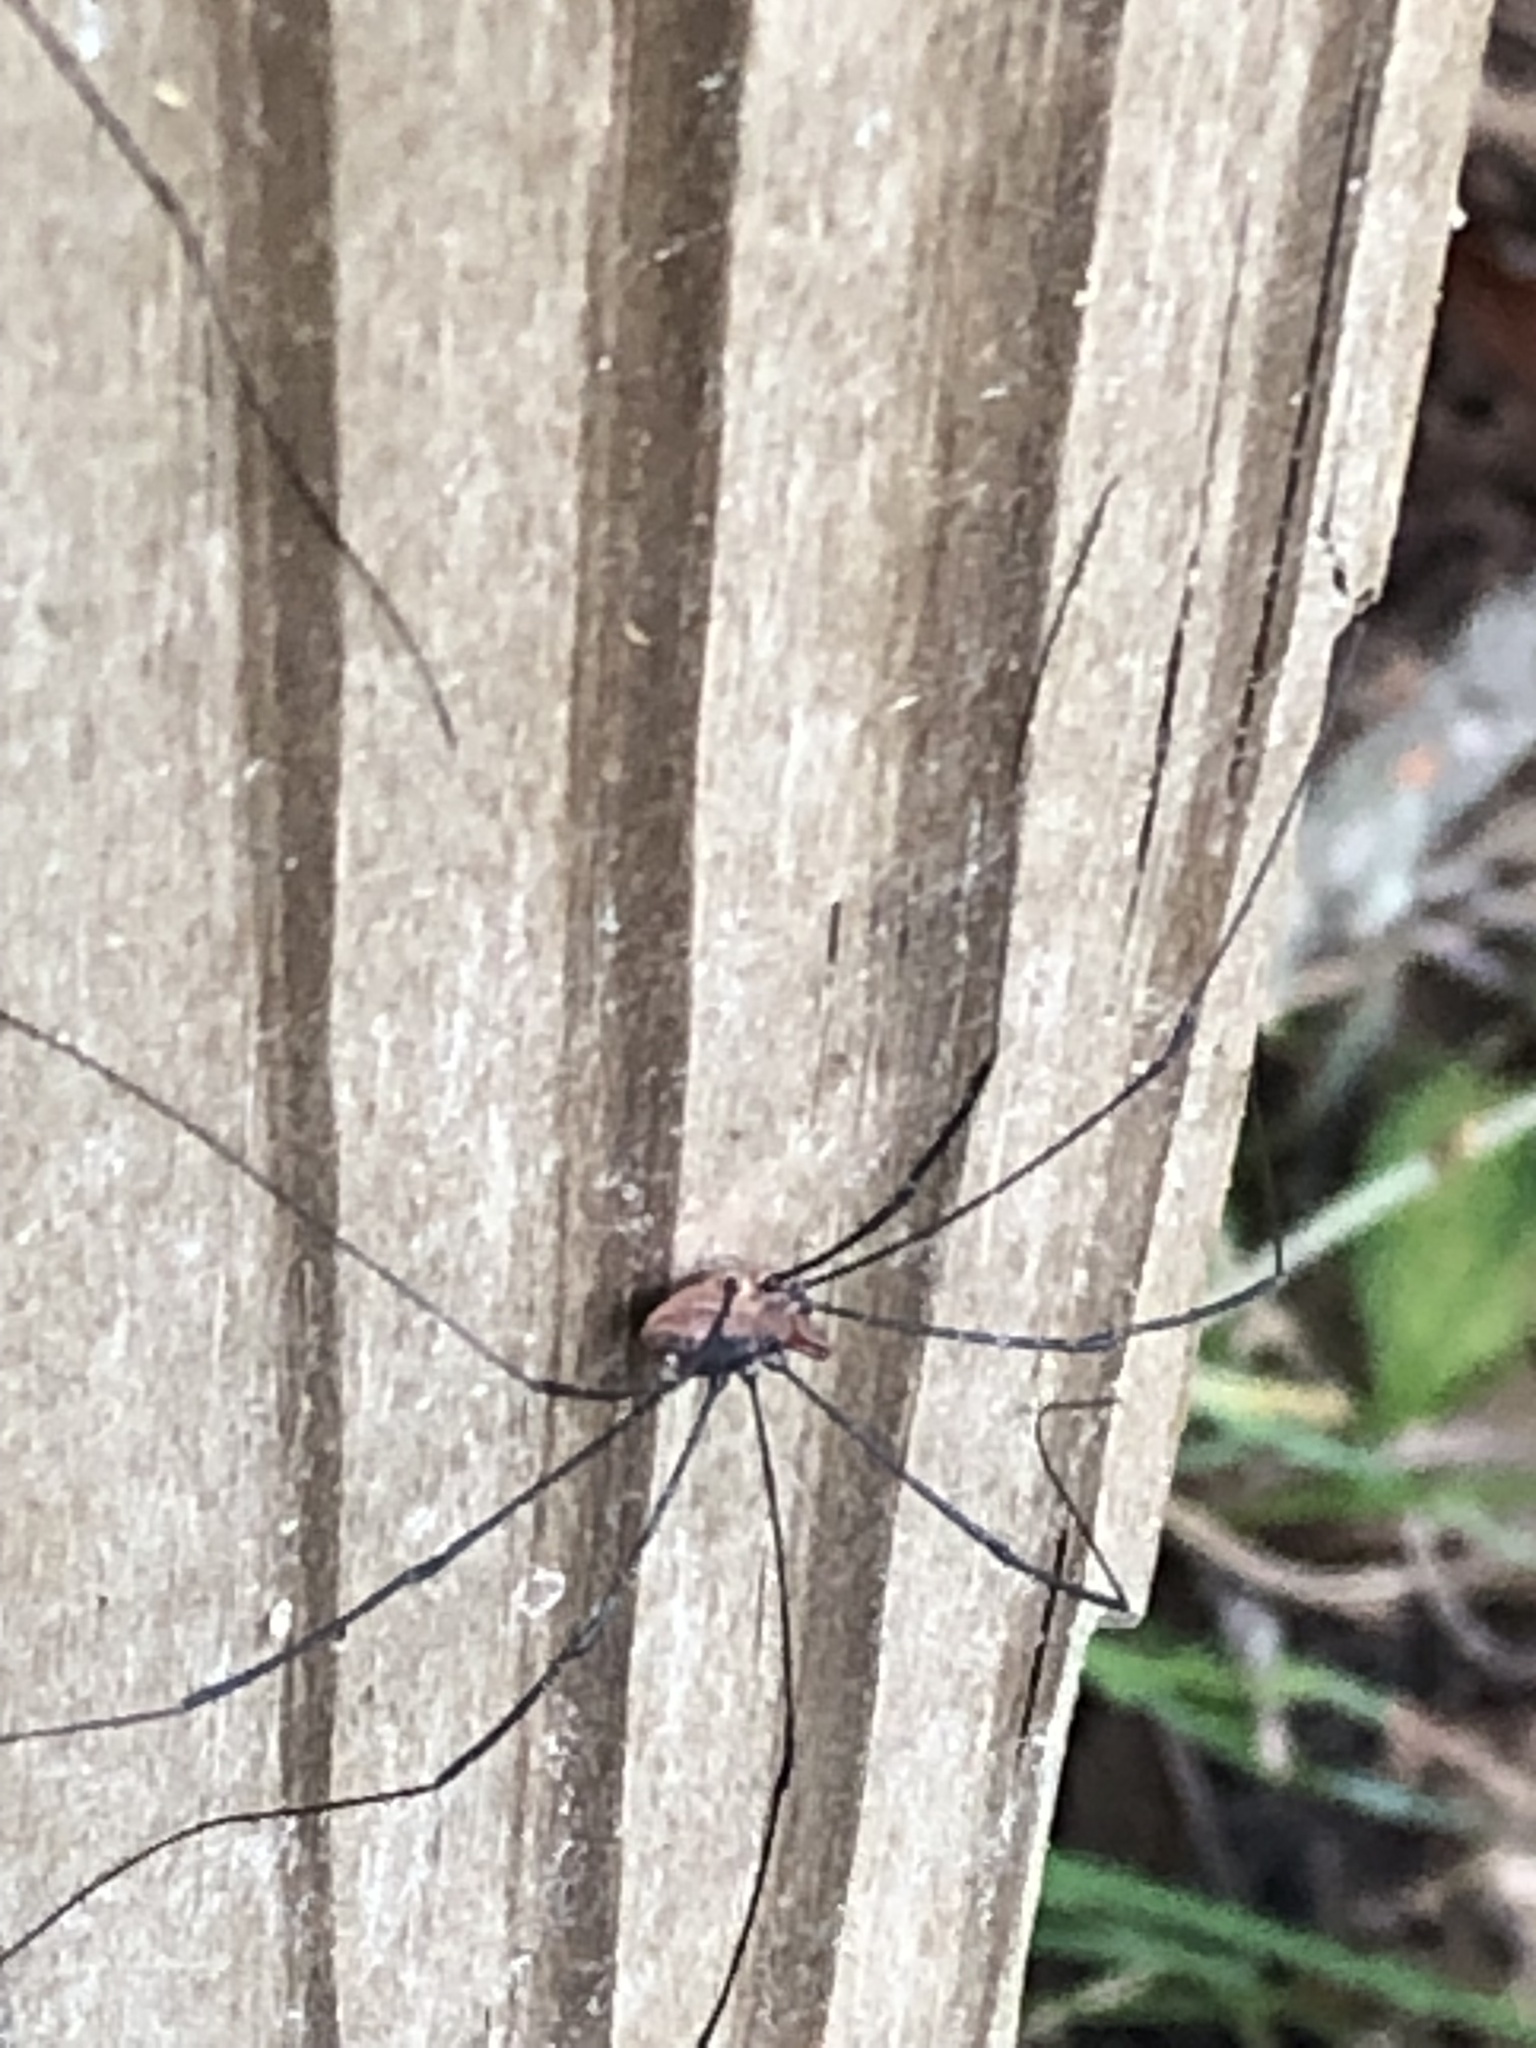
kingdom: Animalia
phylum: Arthropoda
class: Arachnida
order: Opiliones
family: Sclerosomatidae
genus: Leiobunum
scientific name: Leiobunum vittatum
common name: Eastern harvestman
